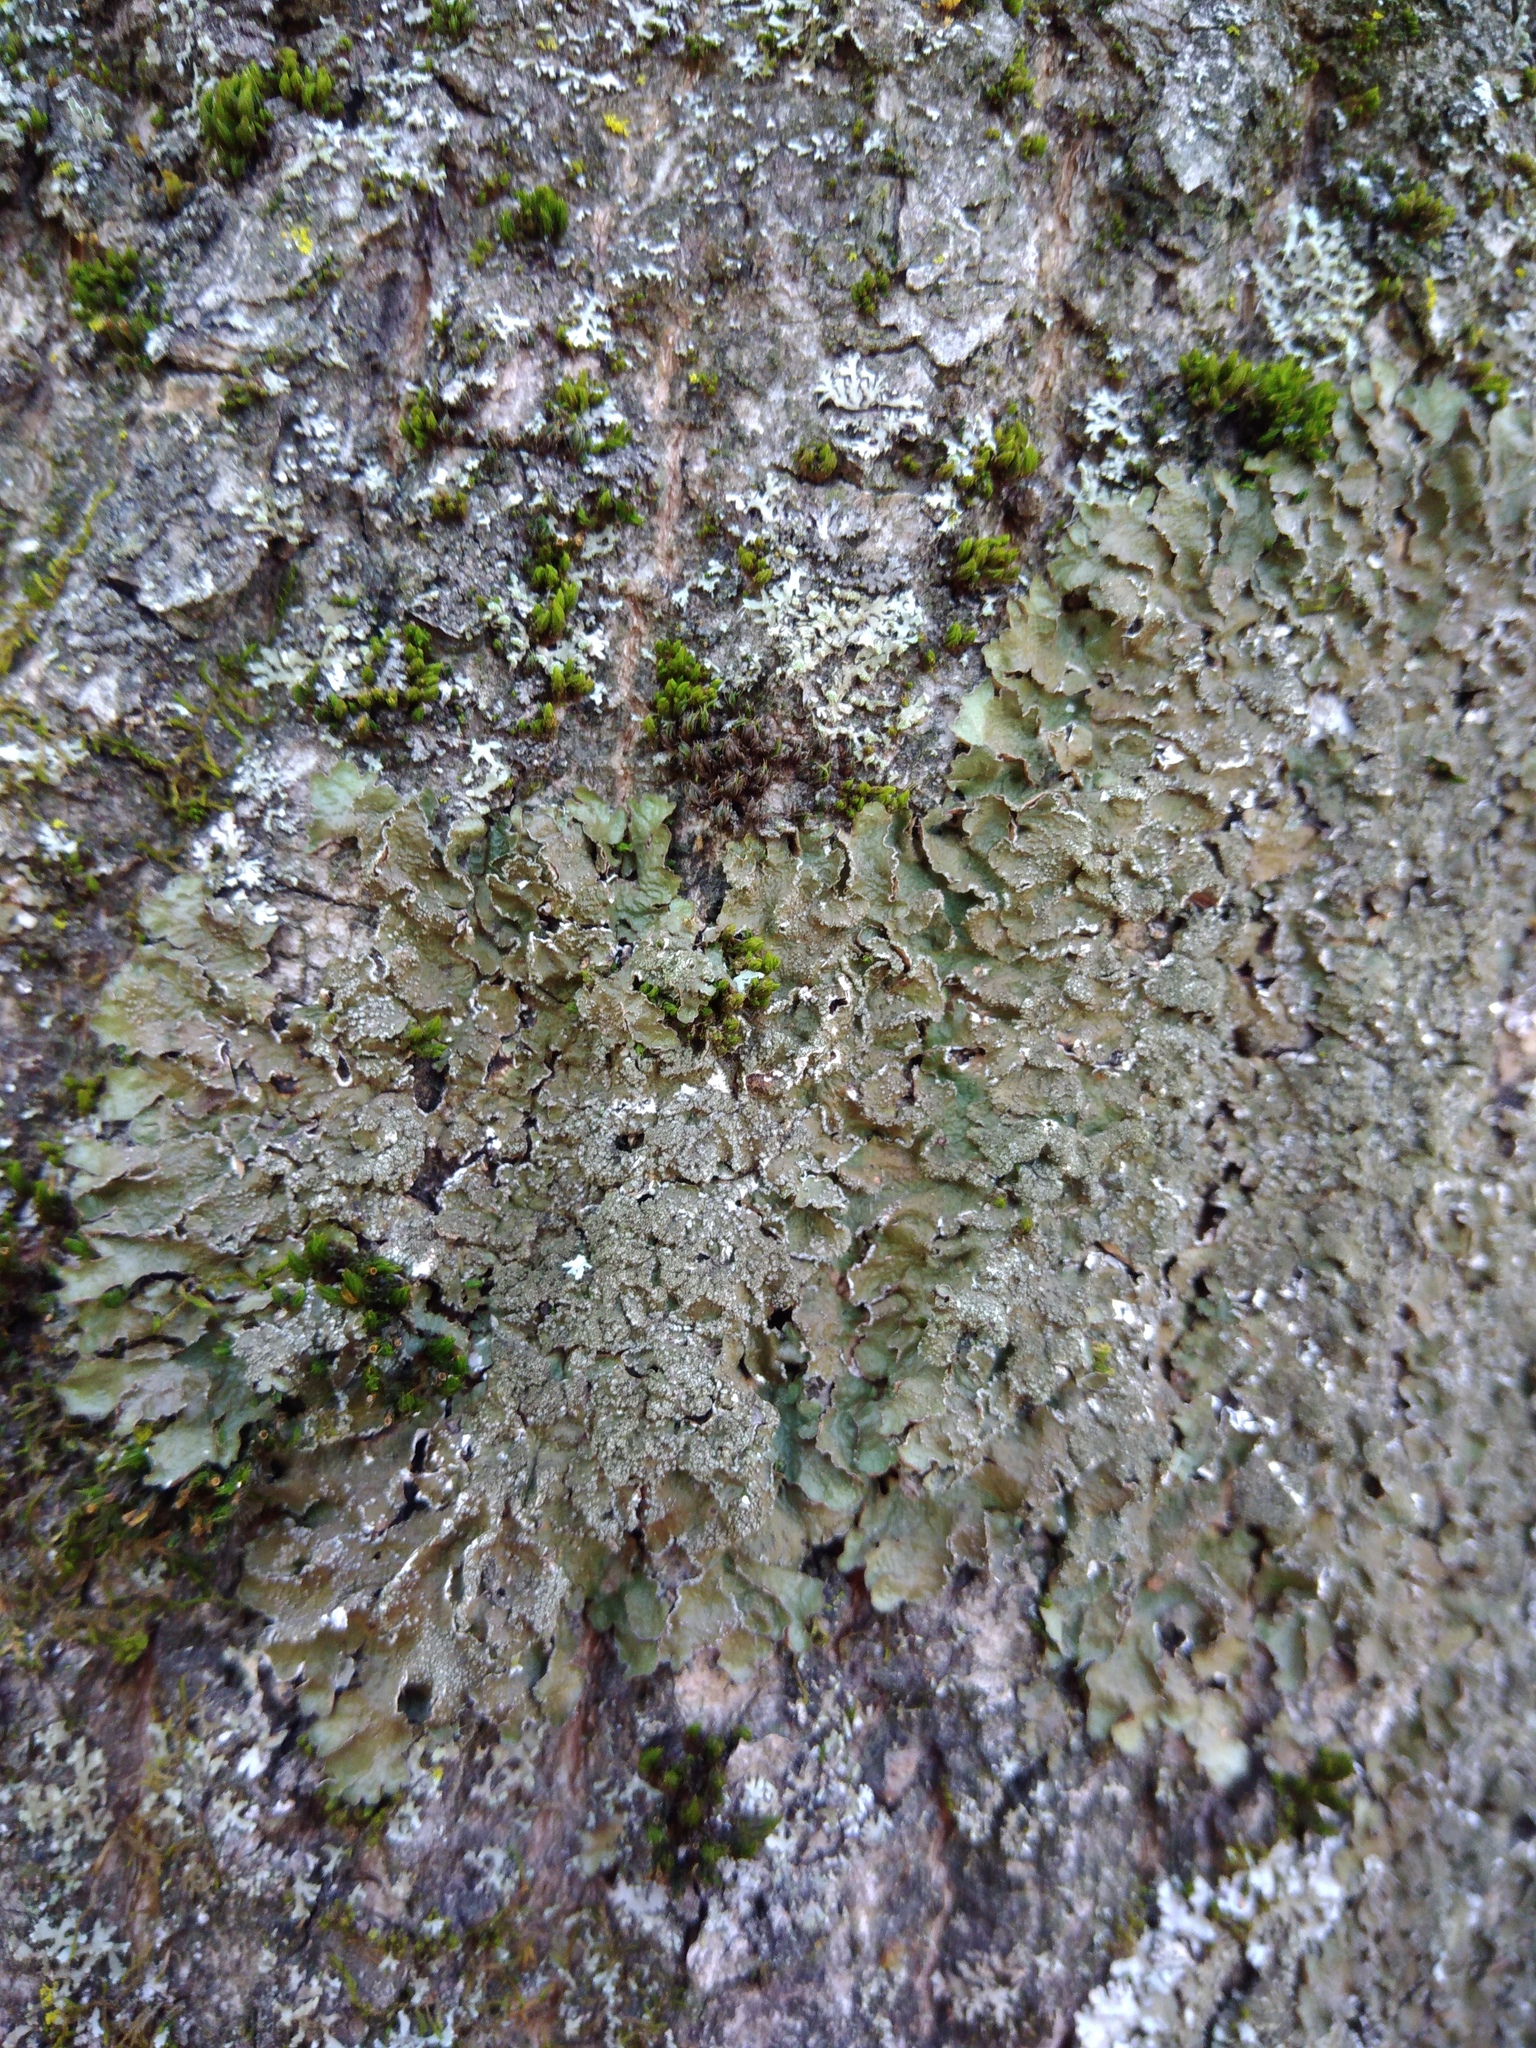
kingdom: Fungi
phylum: Ascomycota
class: Lecanoromycetes
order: Lecanorales
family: Parmeliaceae
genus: Melanelixia
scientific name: Melanelixia subargentifera
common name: Whiskered camouflage lichen
